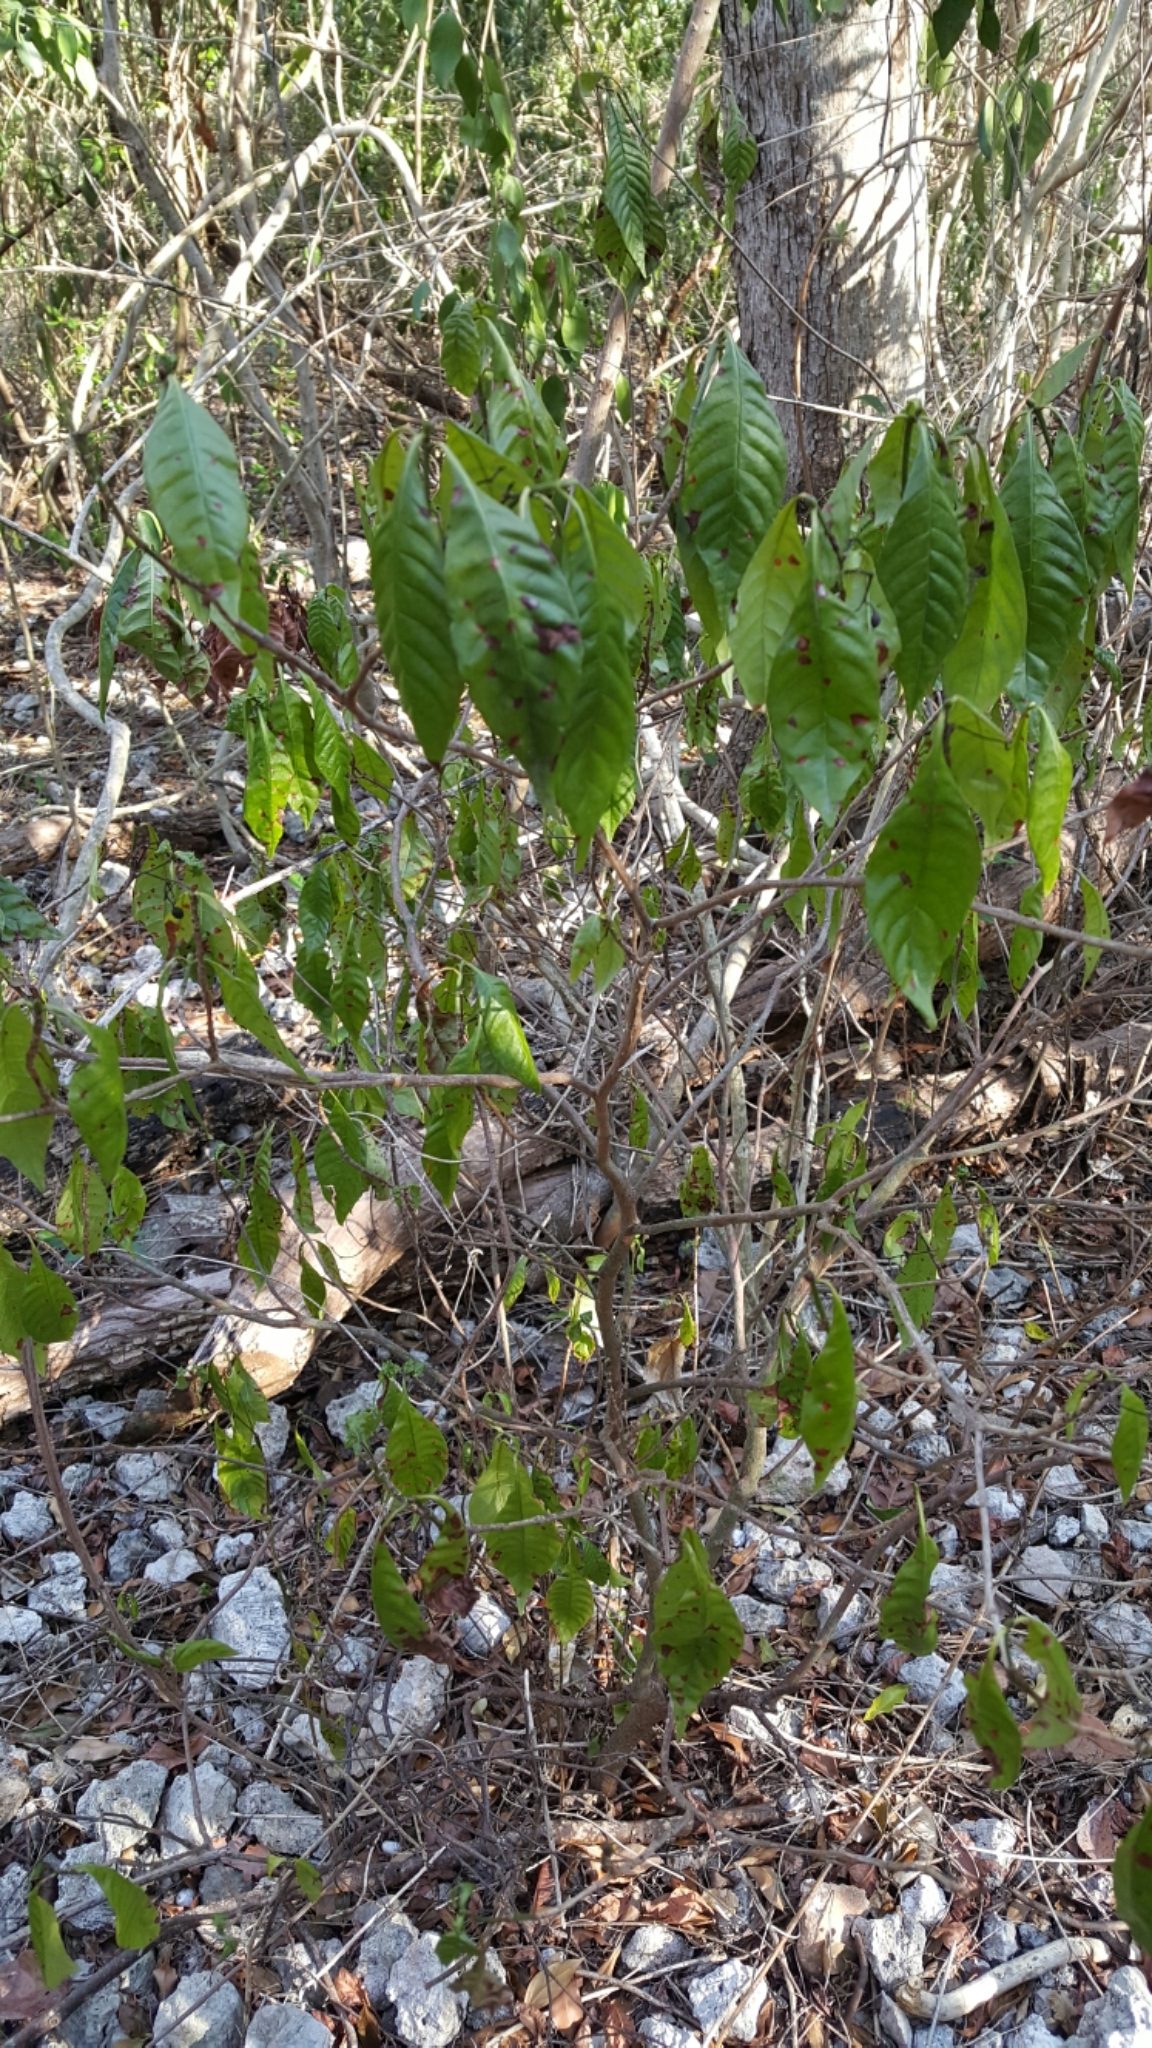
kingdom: Plantae
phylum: Tracheophyta
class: Magnoliopsida
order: Gentianales
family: Rubiaceae
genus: Psychotria
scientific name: Psychotria nervosa
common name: Bastard cankerberry
